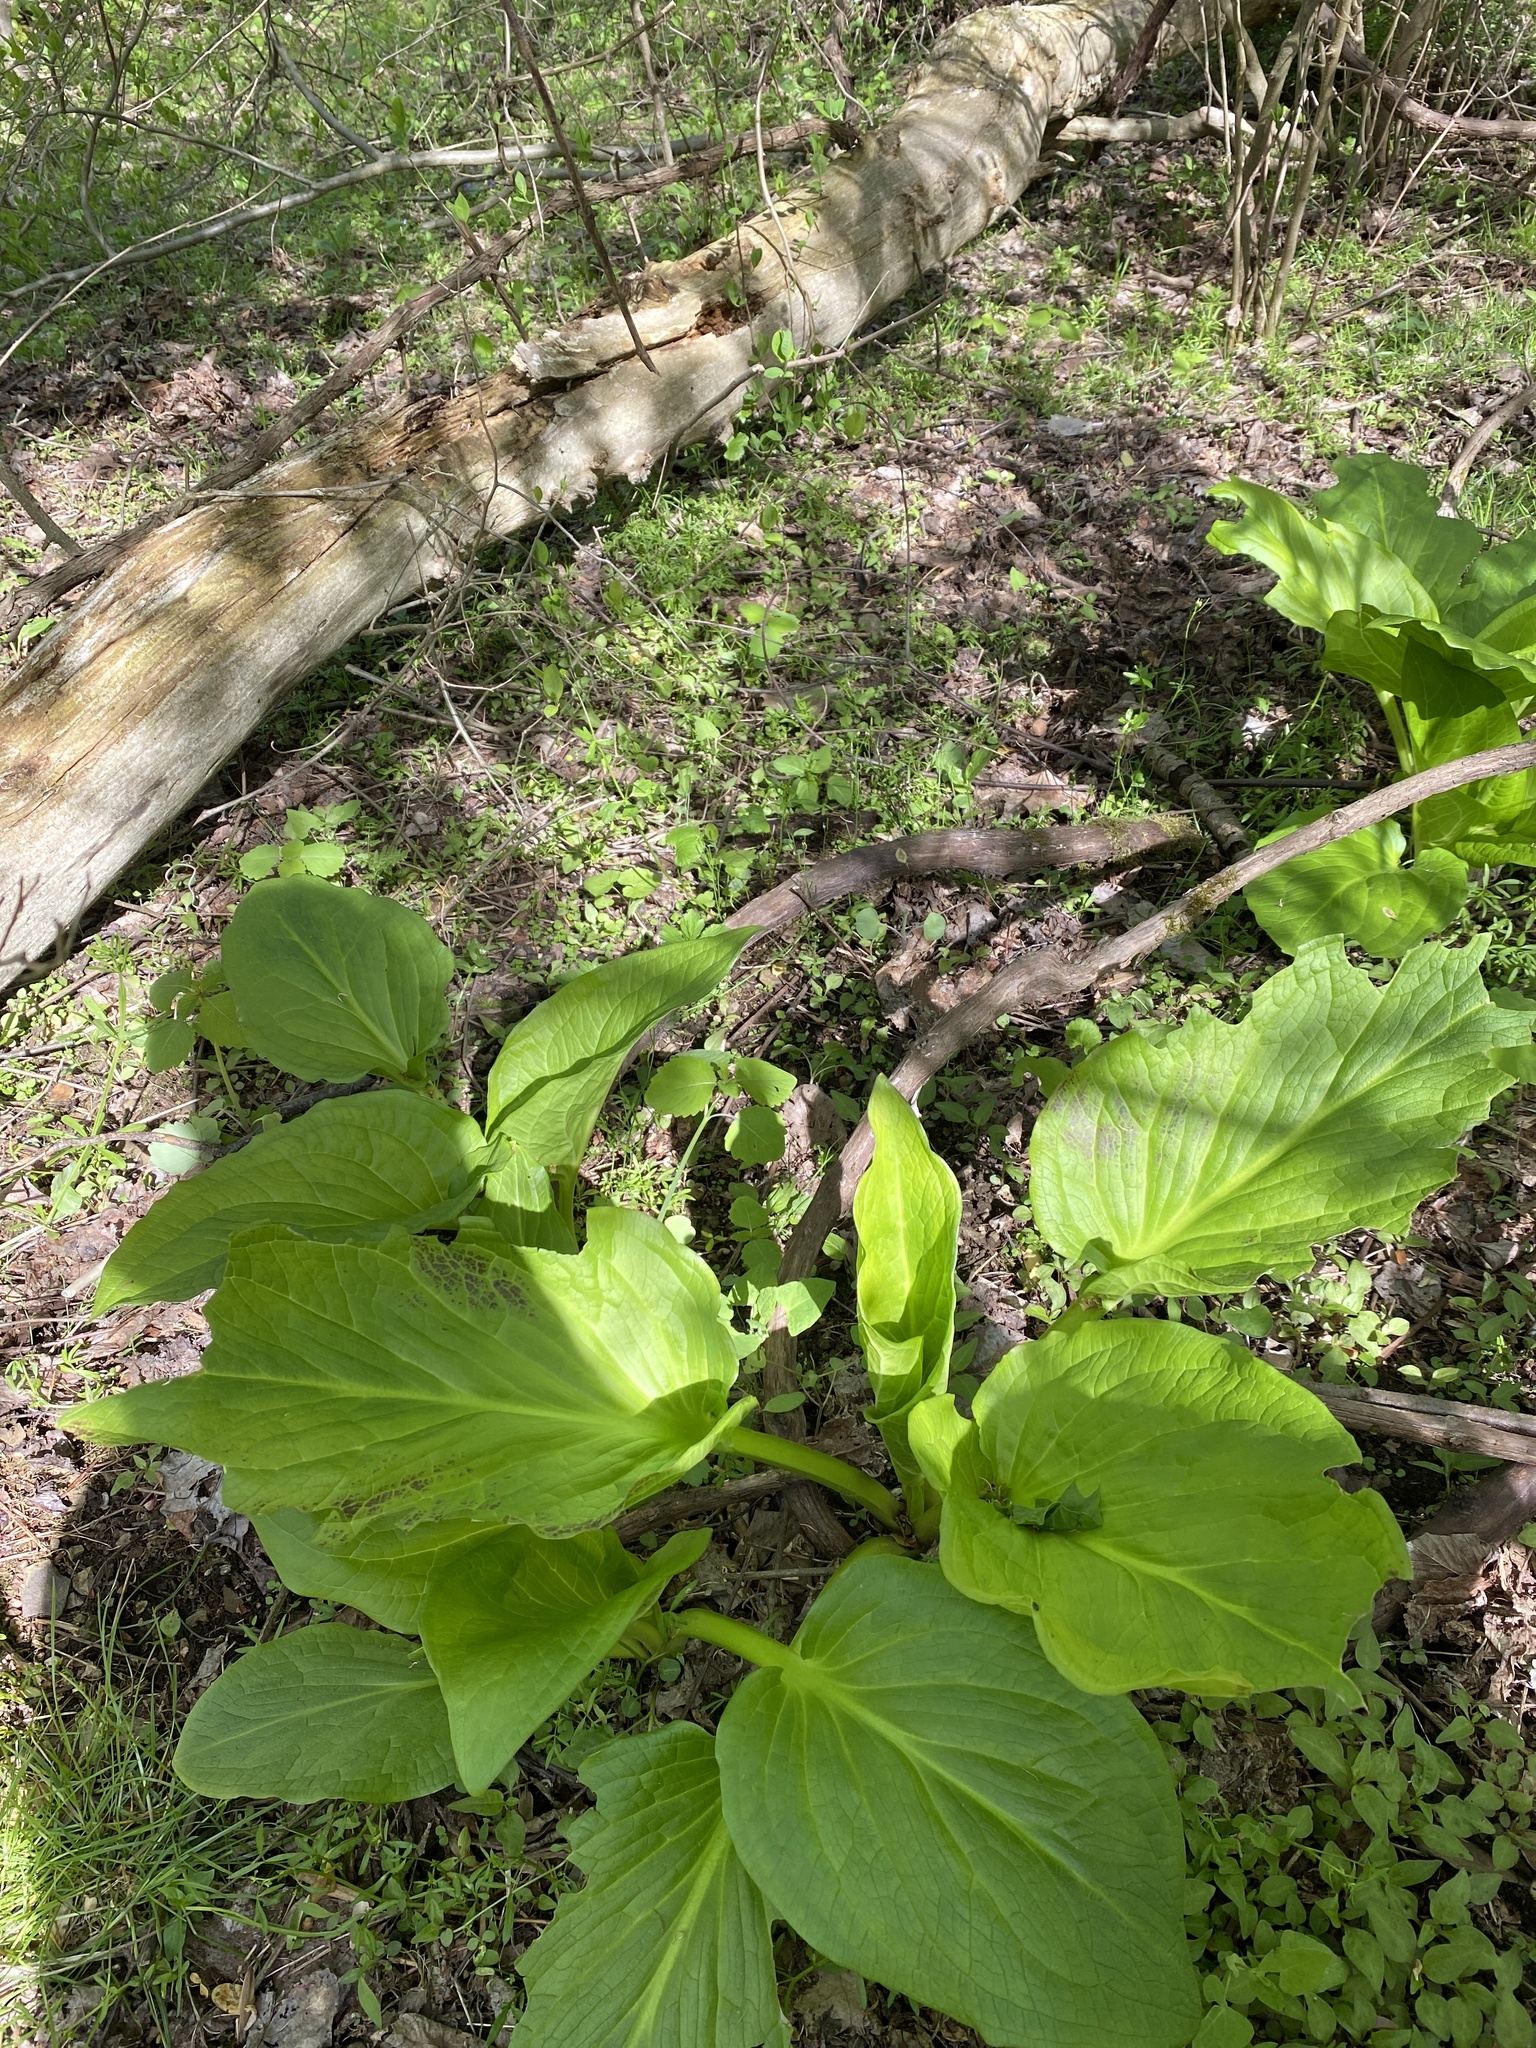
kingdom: Plantae
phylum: Tracheophyta
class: Liliopsida
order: Alismatales
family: Araceae
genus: Symplocarpus
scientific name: Symplocarpus foetidus
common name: Eastern skunk cabbage
